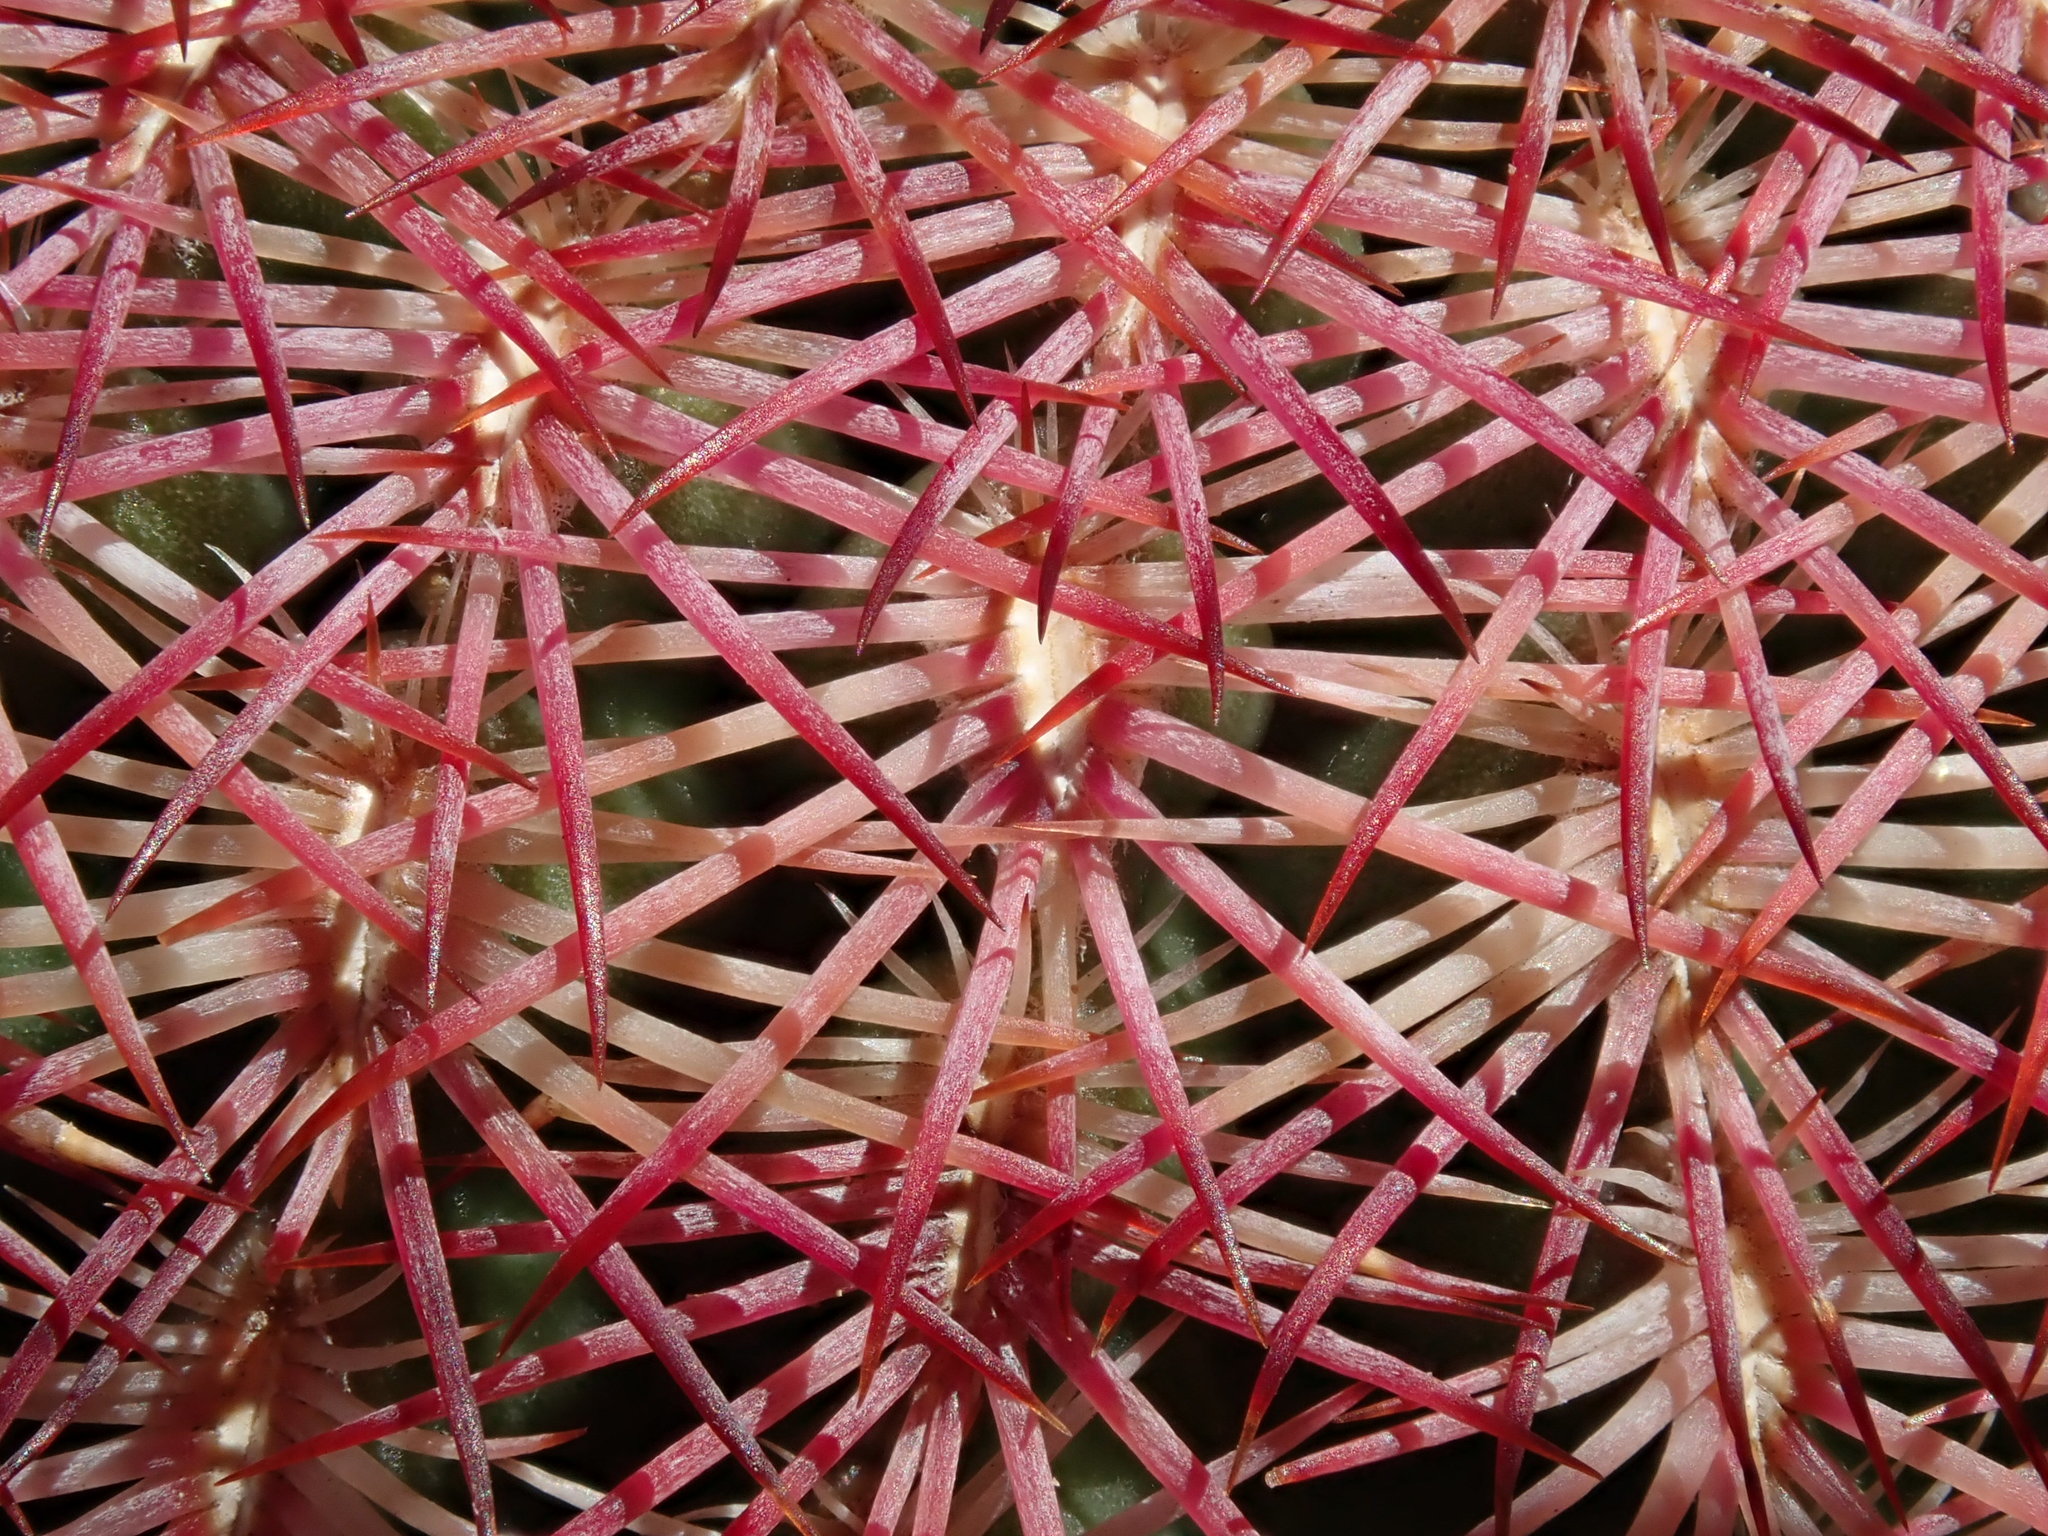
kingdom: Plantae
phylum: Tracheophyta
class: Magnoliopsida
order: Caryophyllales
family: Cactaceae
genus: Echinocereus
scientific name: Echinocereus rigidissimus
